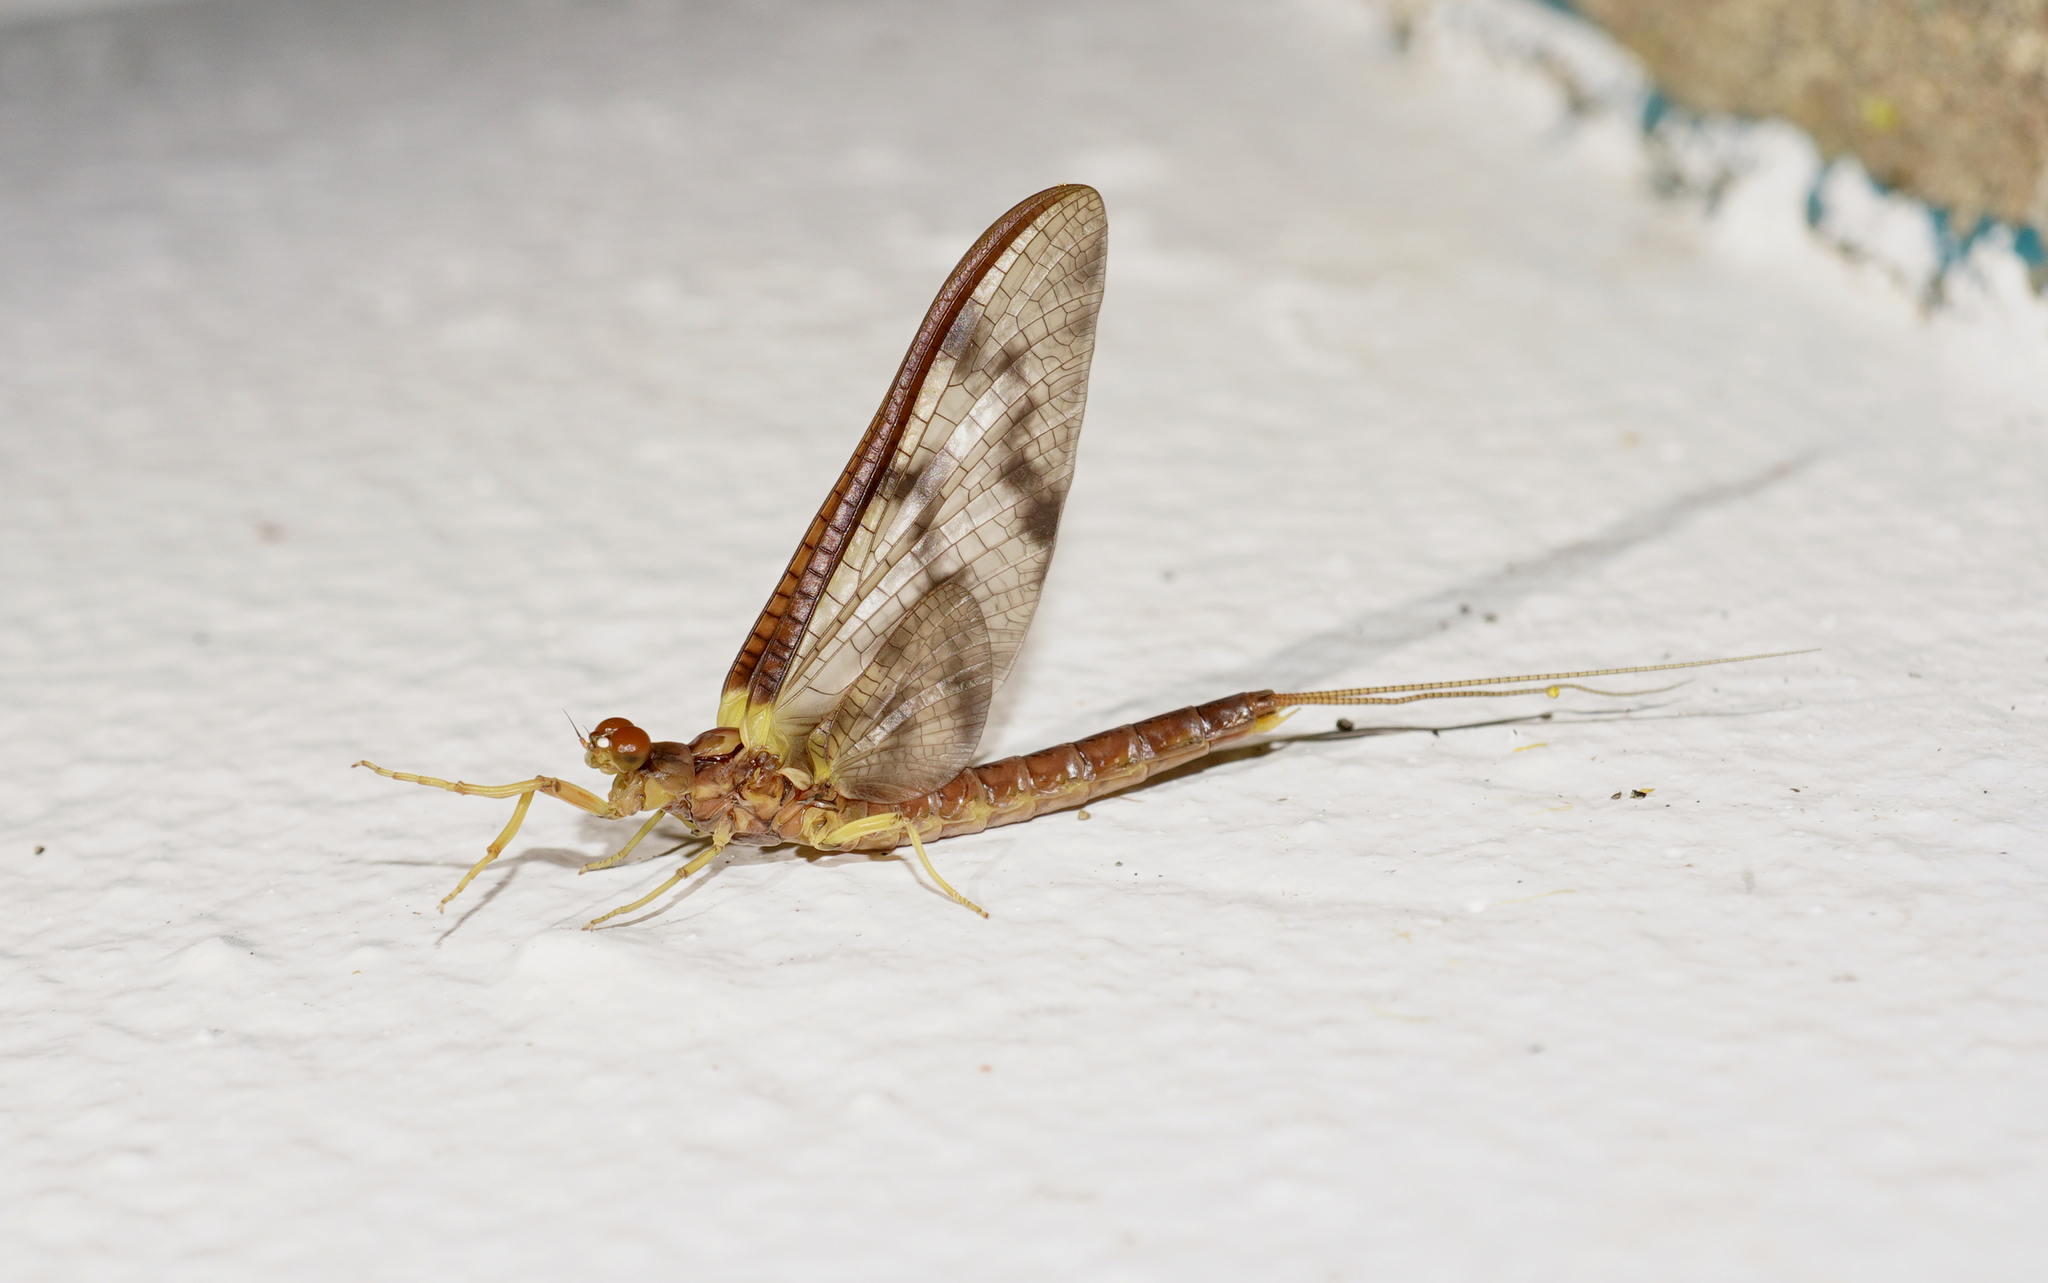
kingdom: Animalia
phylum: Arthropoda
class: Insecta
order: Ephemeroptera
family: Ichthybotidae
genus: Ichthybotus
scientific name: Ichthybotus hudsoni
